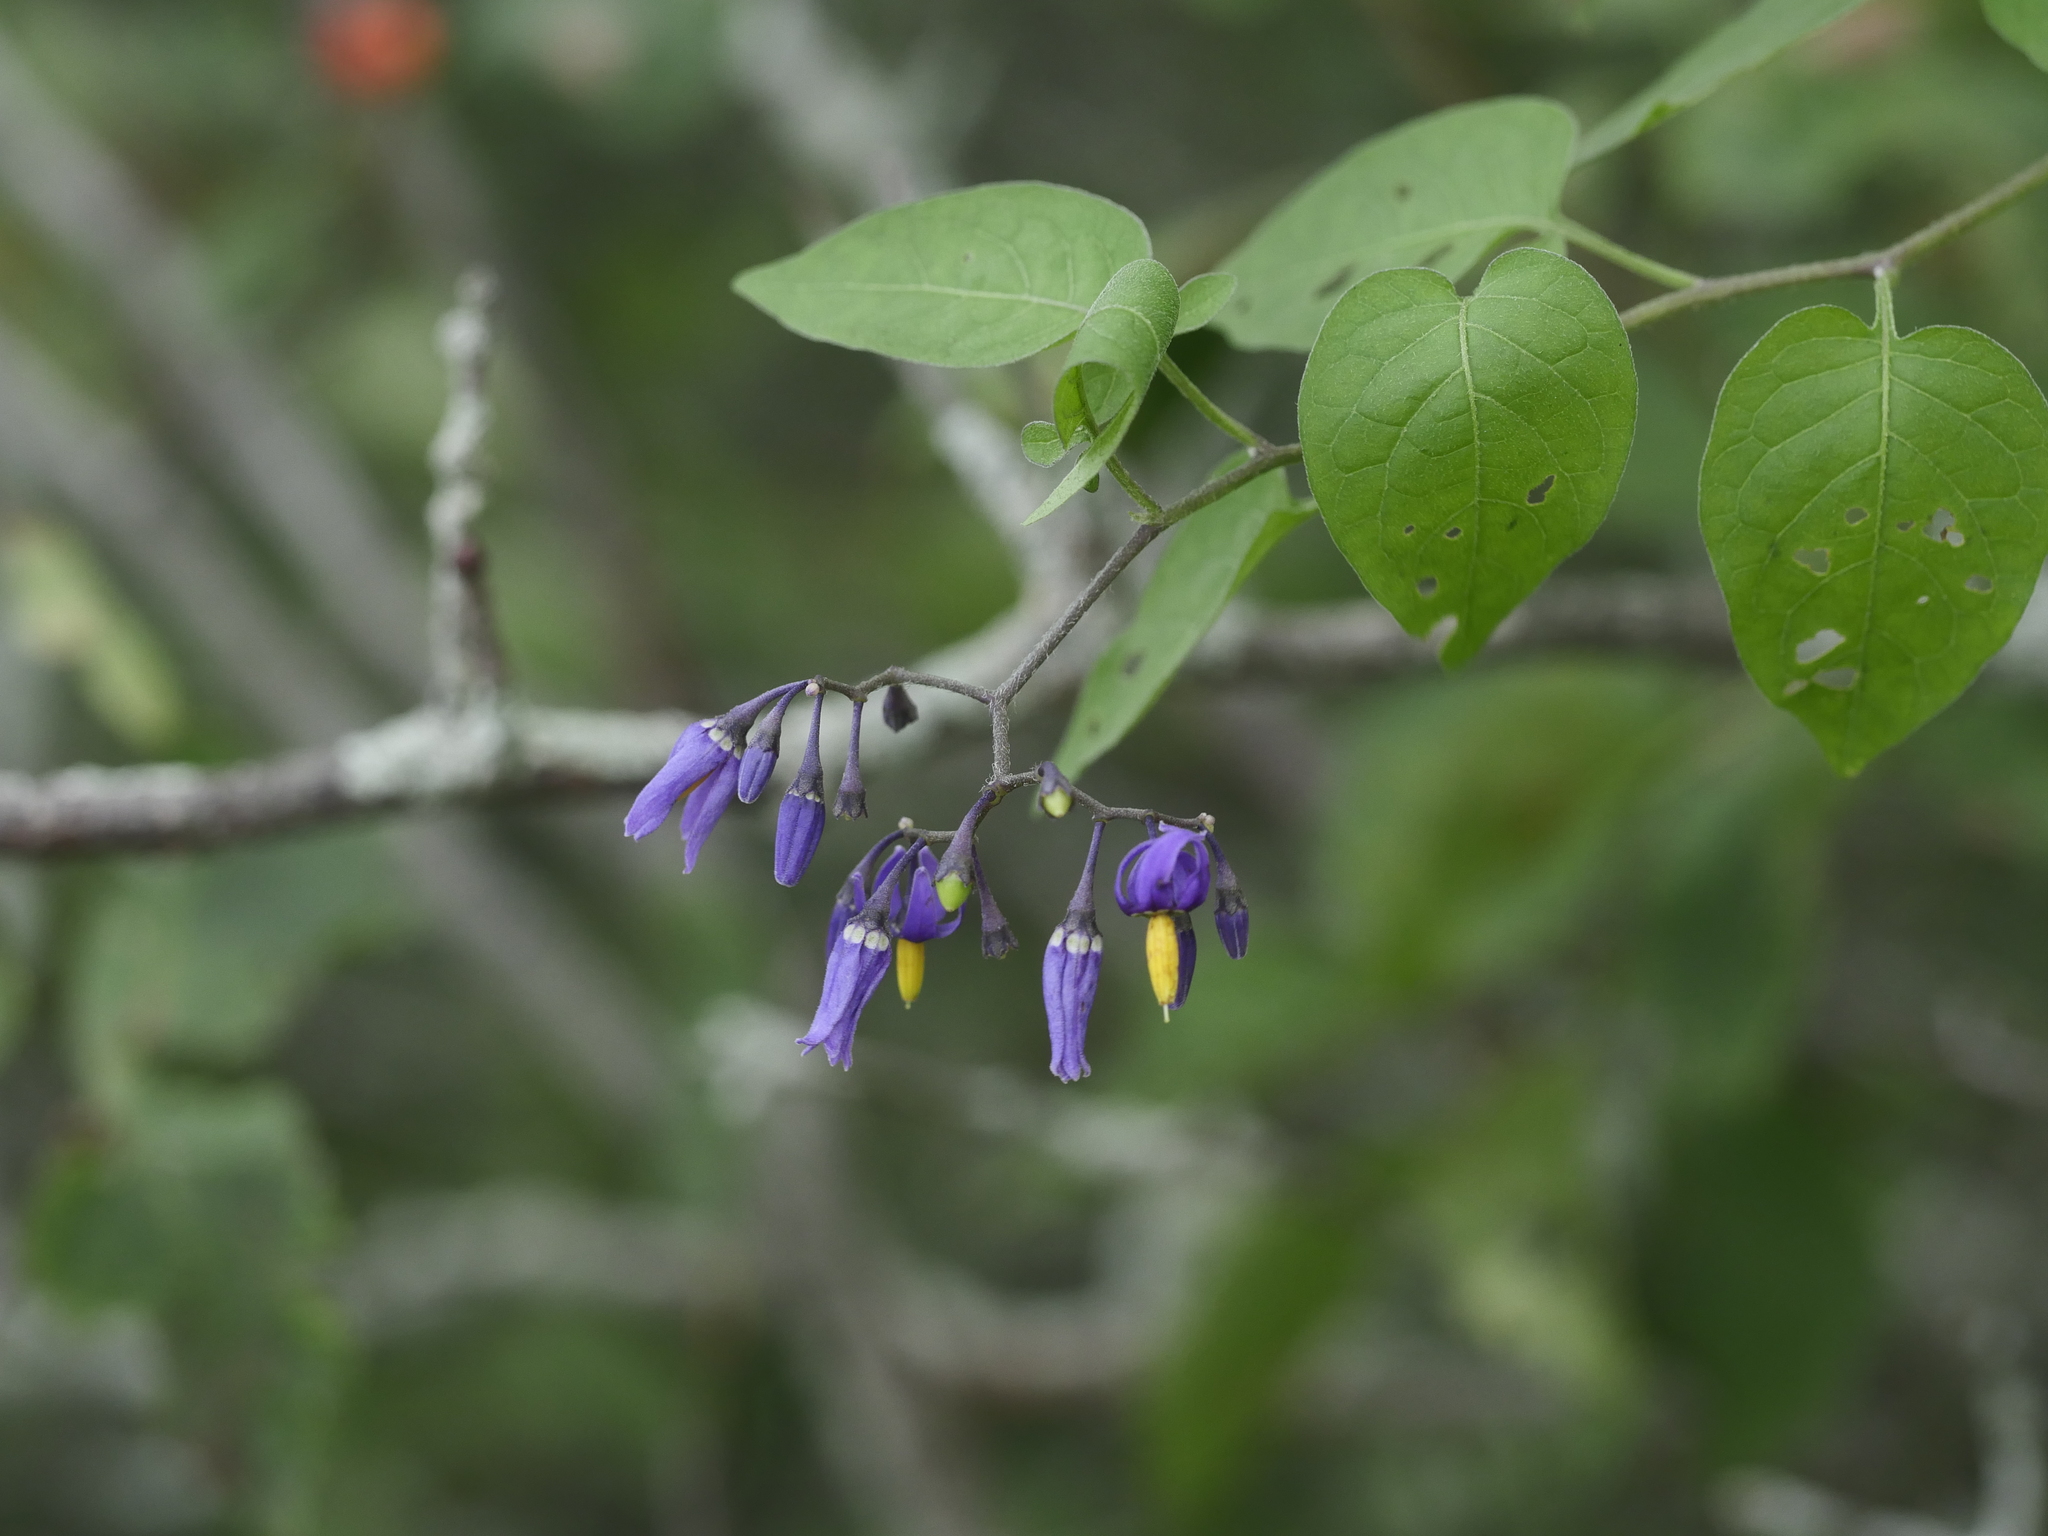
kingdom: Plantae
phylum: Tracheophyta
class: Magnoliopsida
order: Solanales
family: Solanaceae
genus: Solanum
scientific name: Solanum dulcamara
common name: Climbing nightshade
